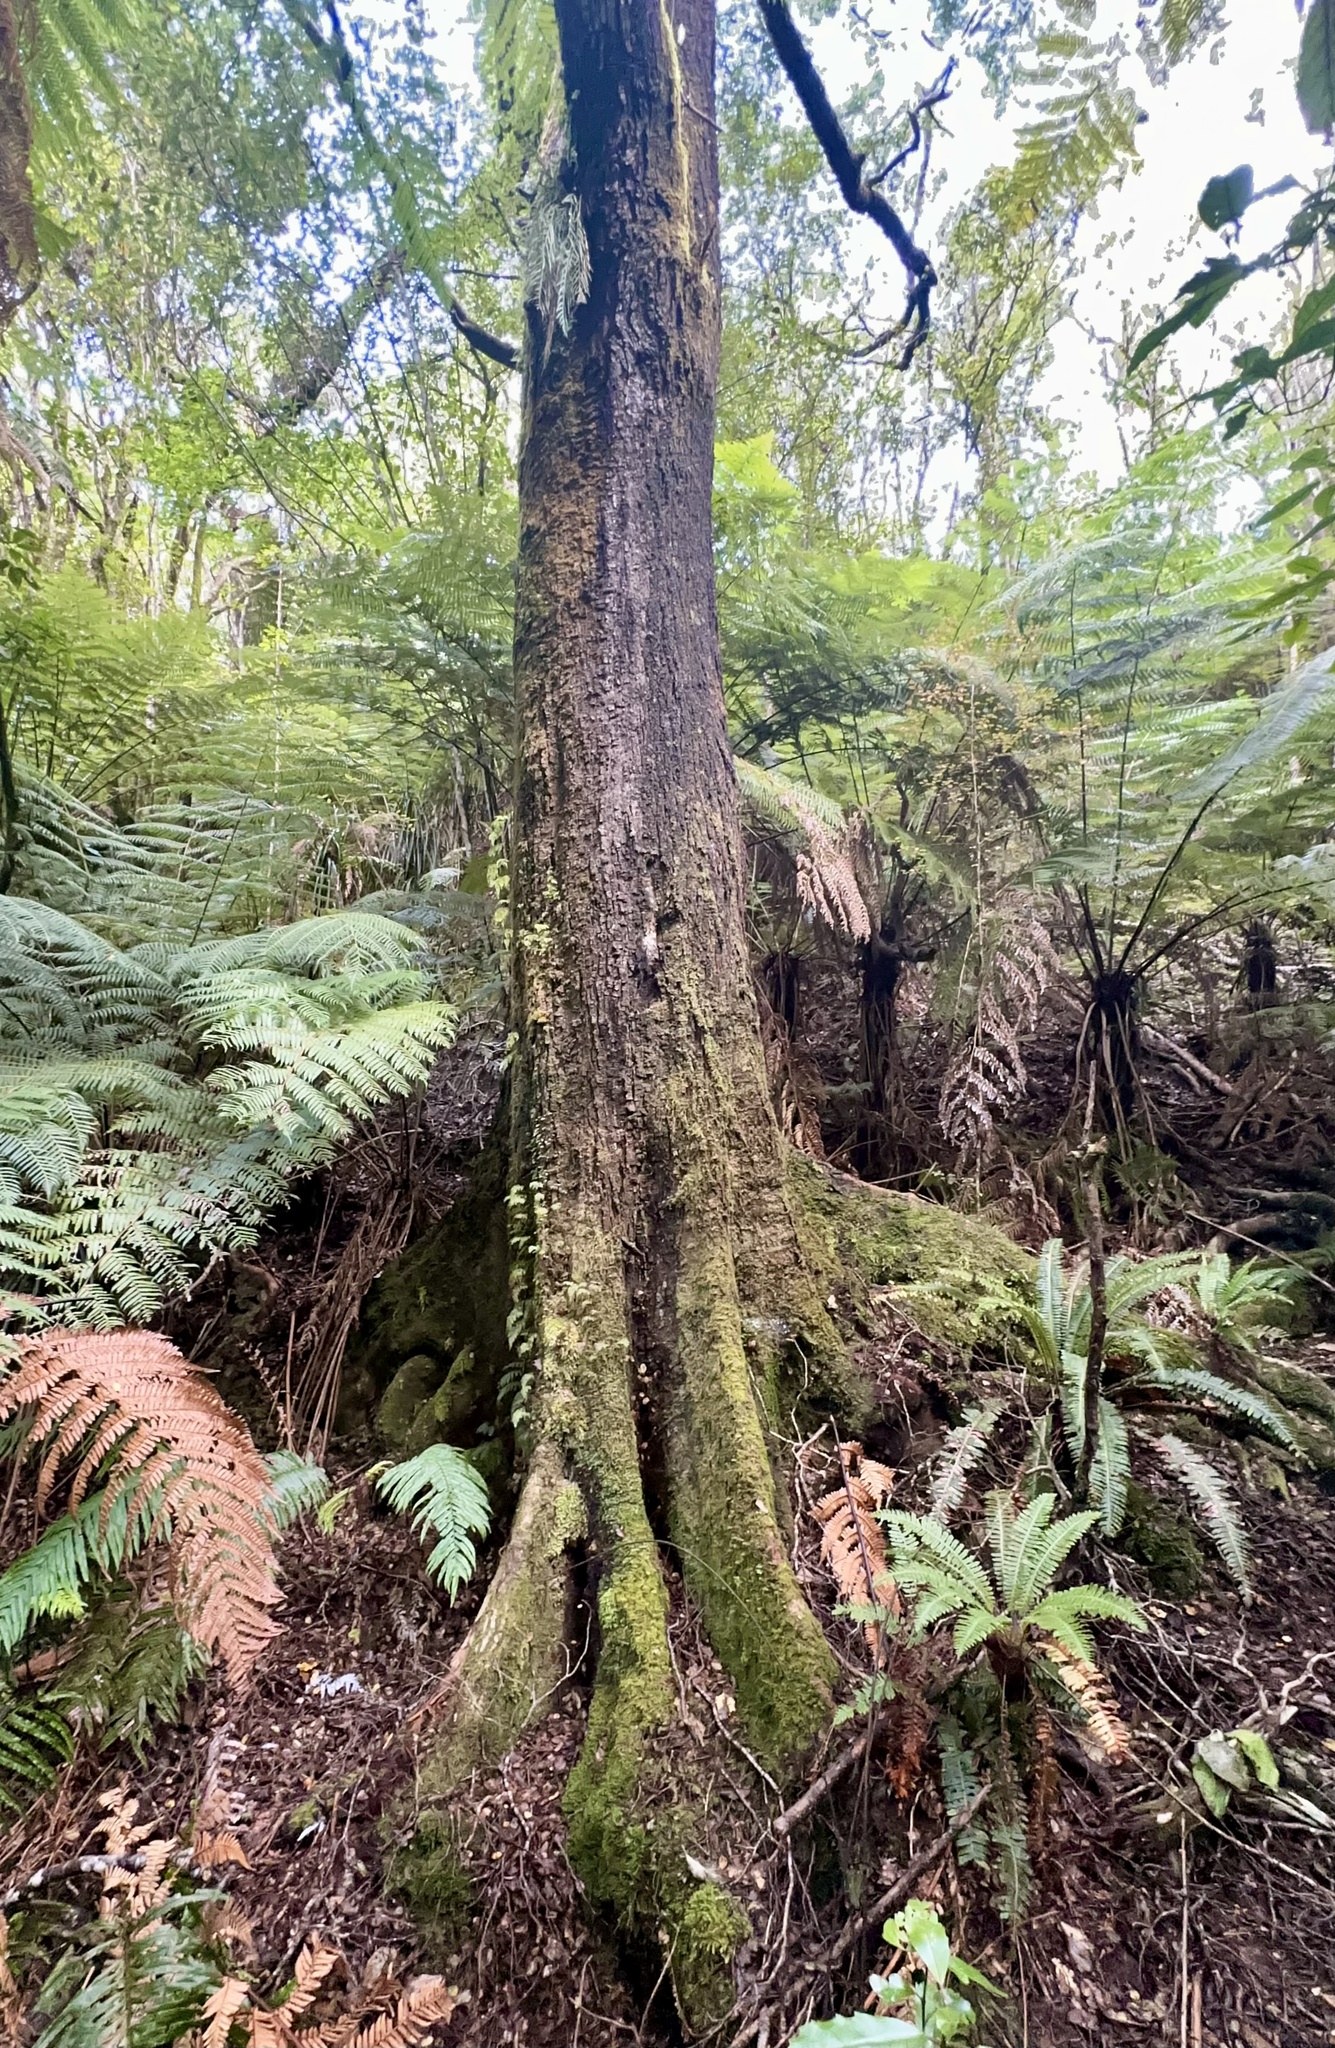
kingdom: Plantae
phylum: Tracheophyta
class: Magnoliopsida
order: Fagales
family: Nothofagaceae
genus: Nothofagus
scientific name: Nothofagus truncata
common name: Hard beech
